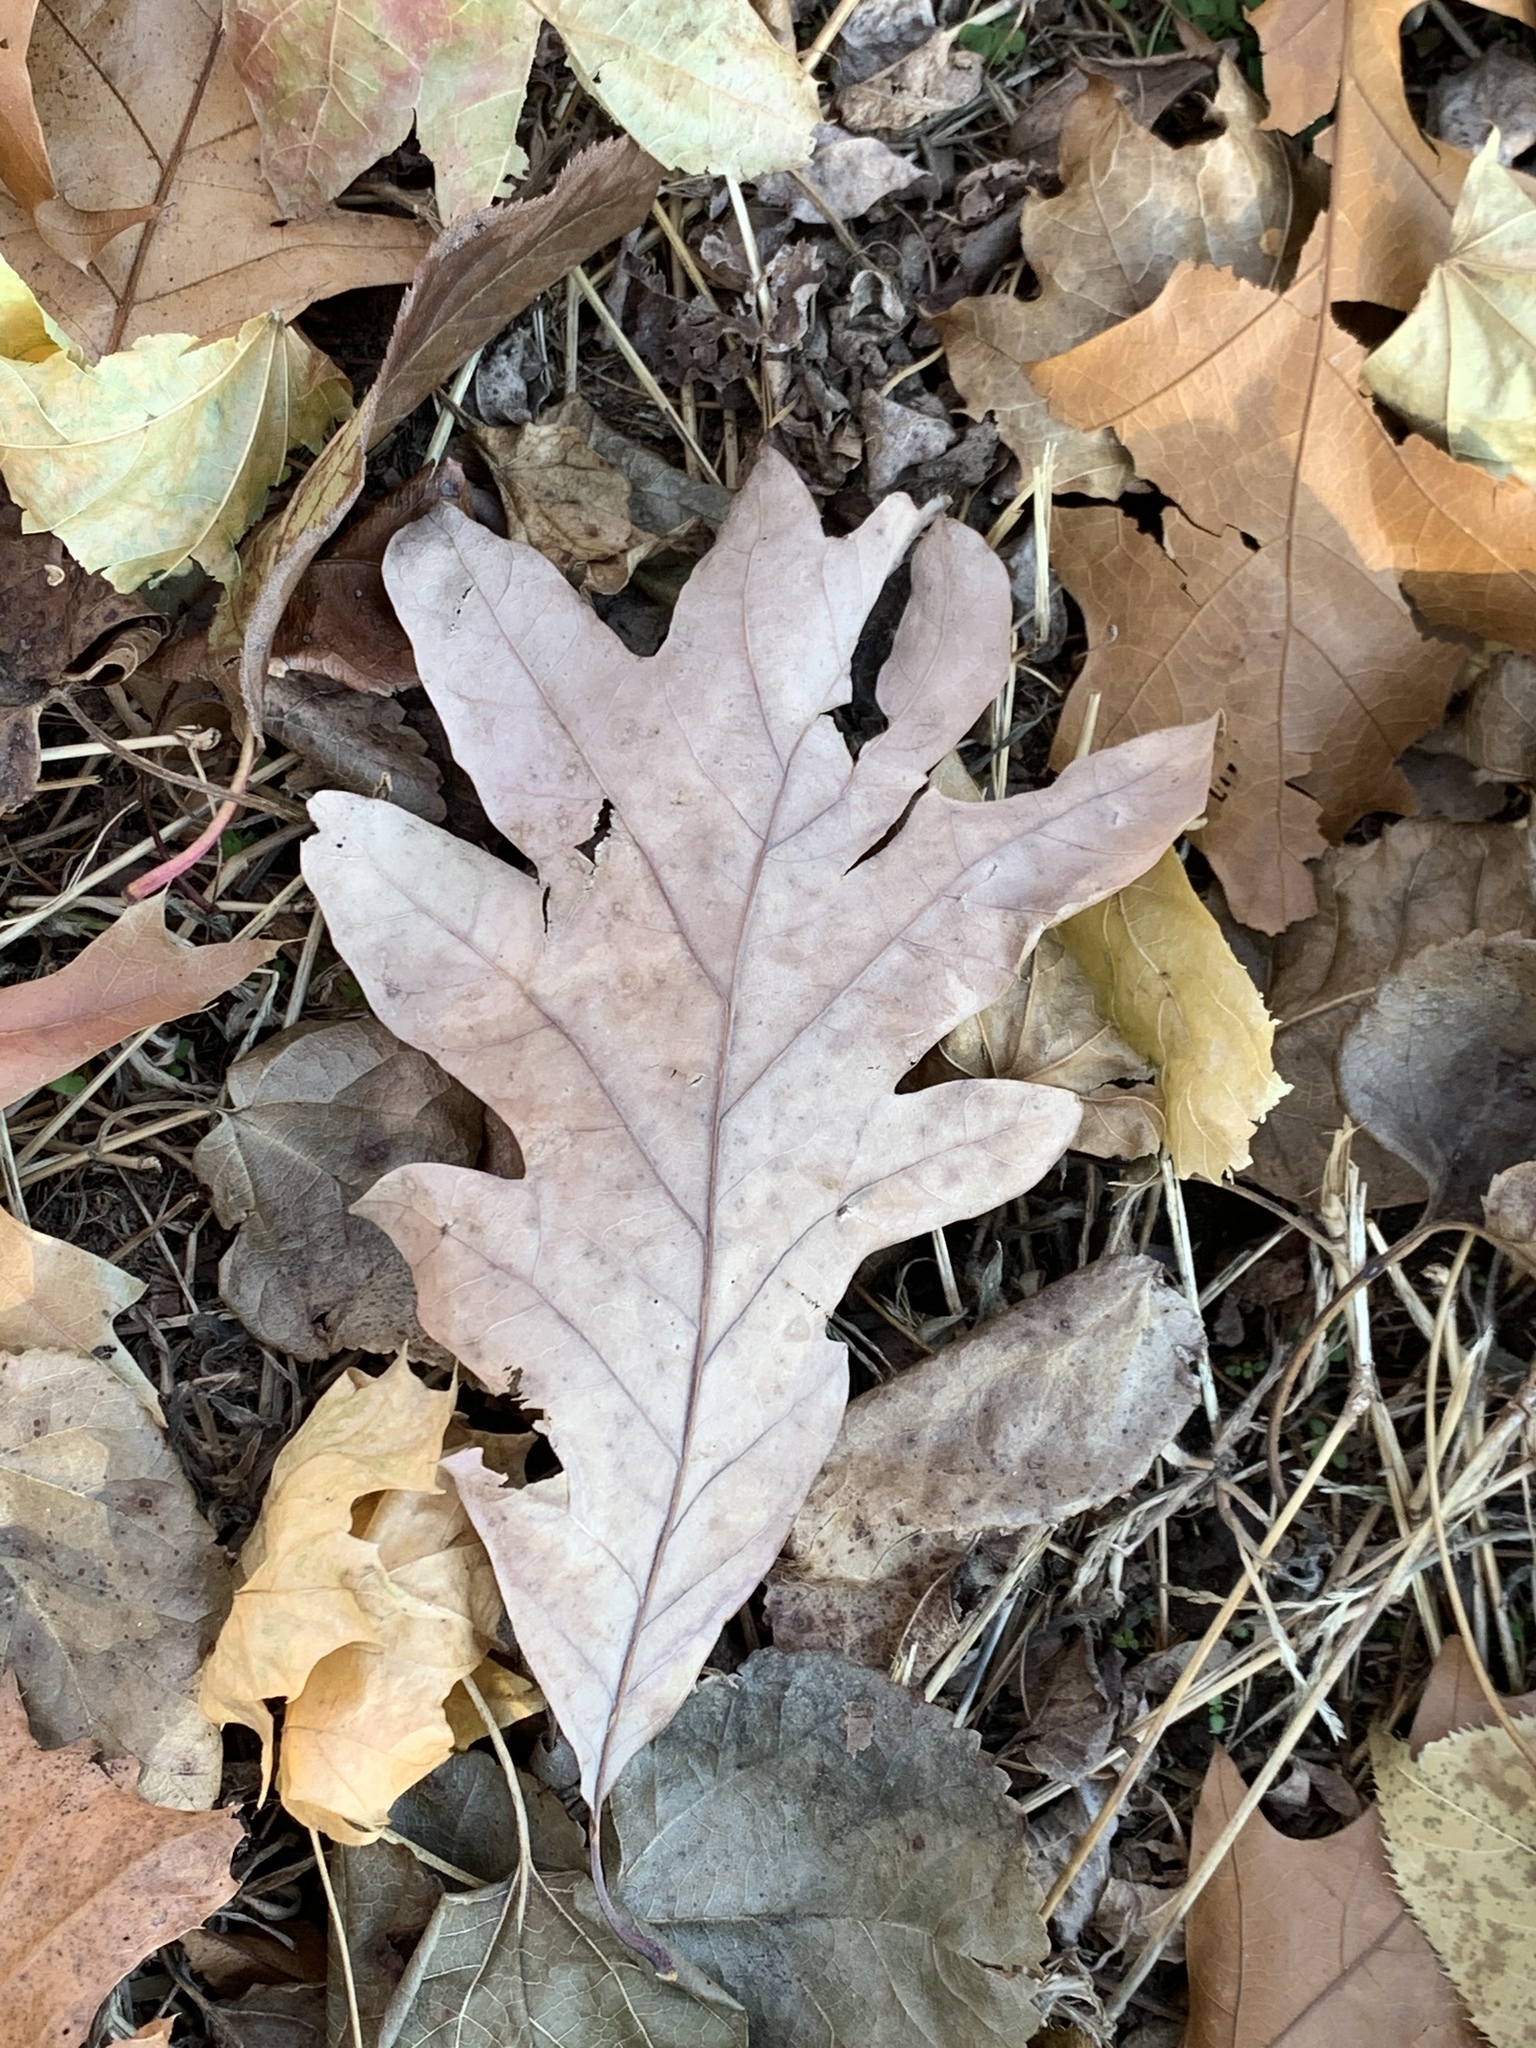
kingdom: Plantae
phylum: Tracheophyta
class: Magnoliopsida
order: Fagales
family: Fagaceae
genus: Quercus
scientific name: Quercus alba
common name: White oak
